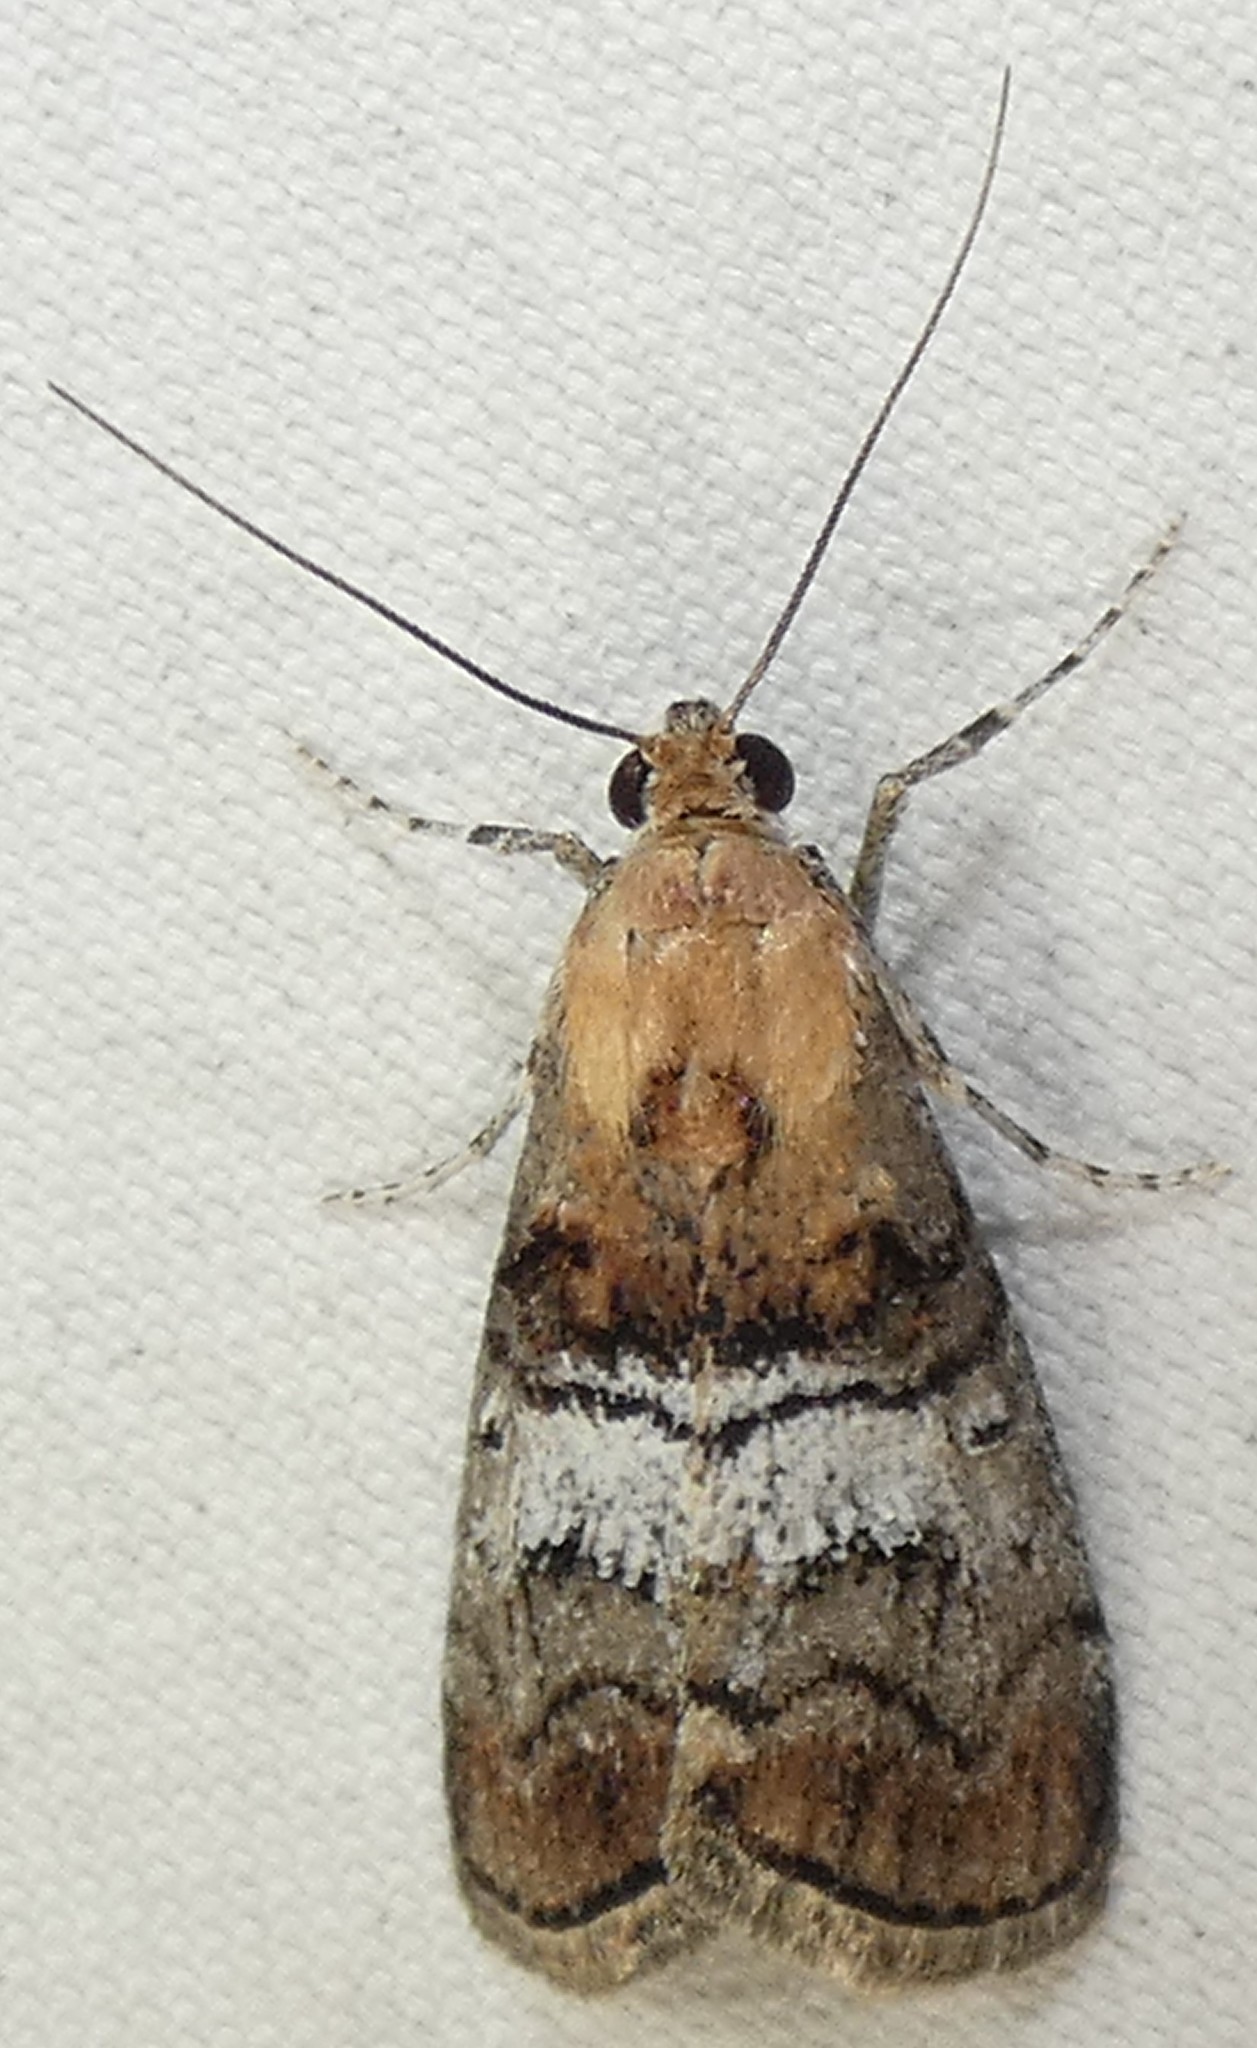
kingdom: Animalia
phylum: Arthropoda
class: Insecta
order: Lepidoptera
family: Pyralidae
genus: Pococera
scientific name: Pococera maritimalis
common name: Gray-banded pococera moth
